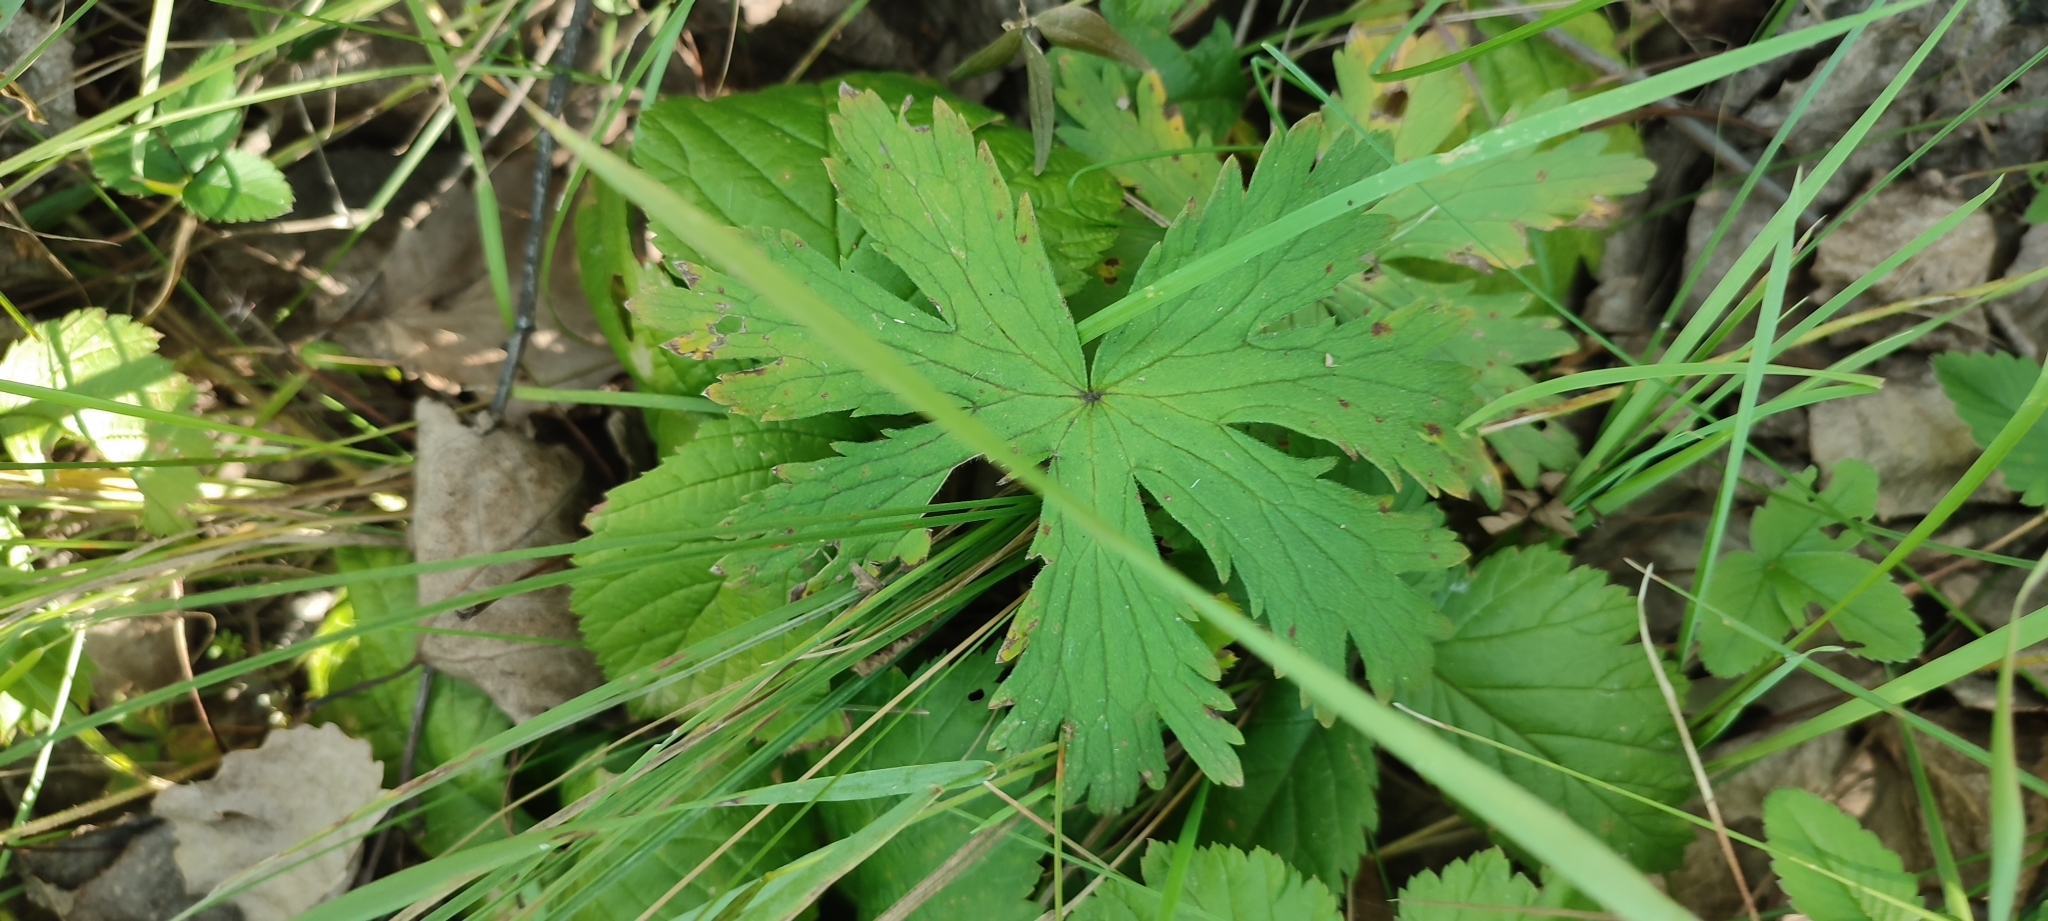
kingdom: Plantae
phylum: Tracheophyta
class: Magnoliopsida
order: Geraniales
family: Geraniaceae
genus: Geranium
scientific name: Geranium sylvaticum
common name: Wood crane's-bill
